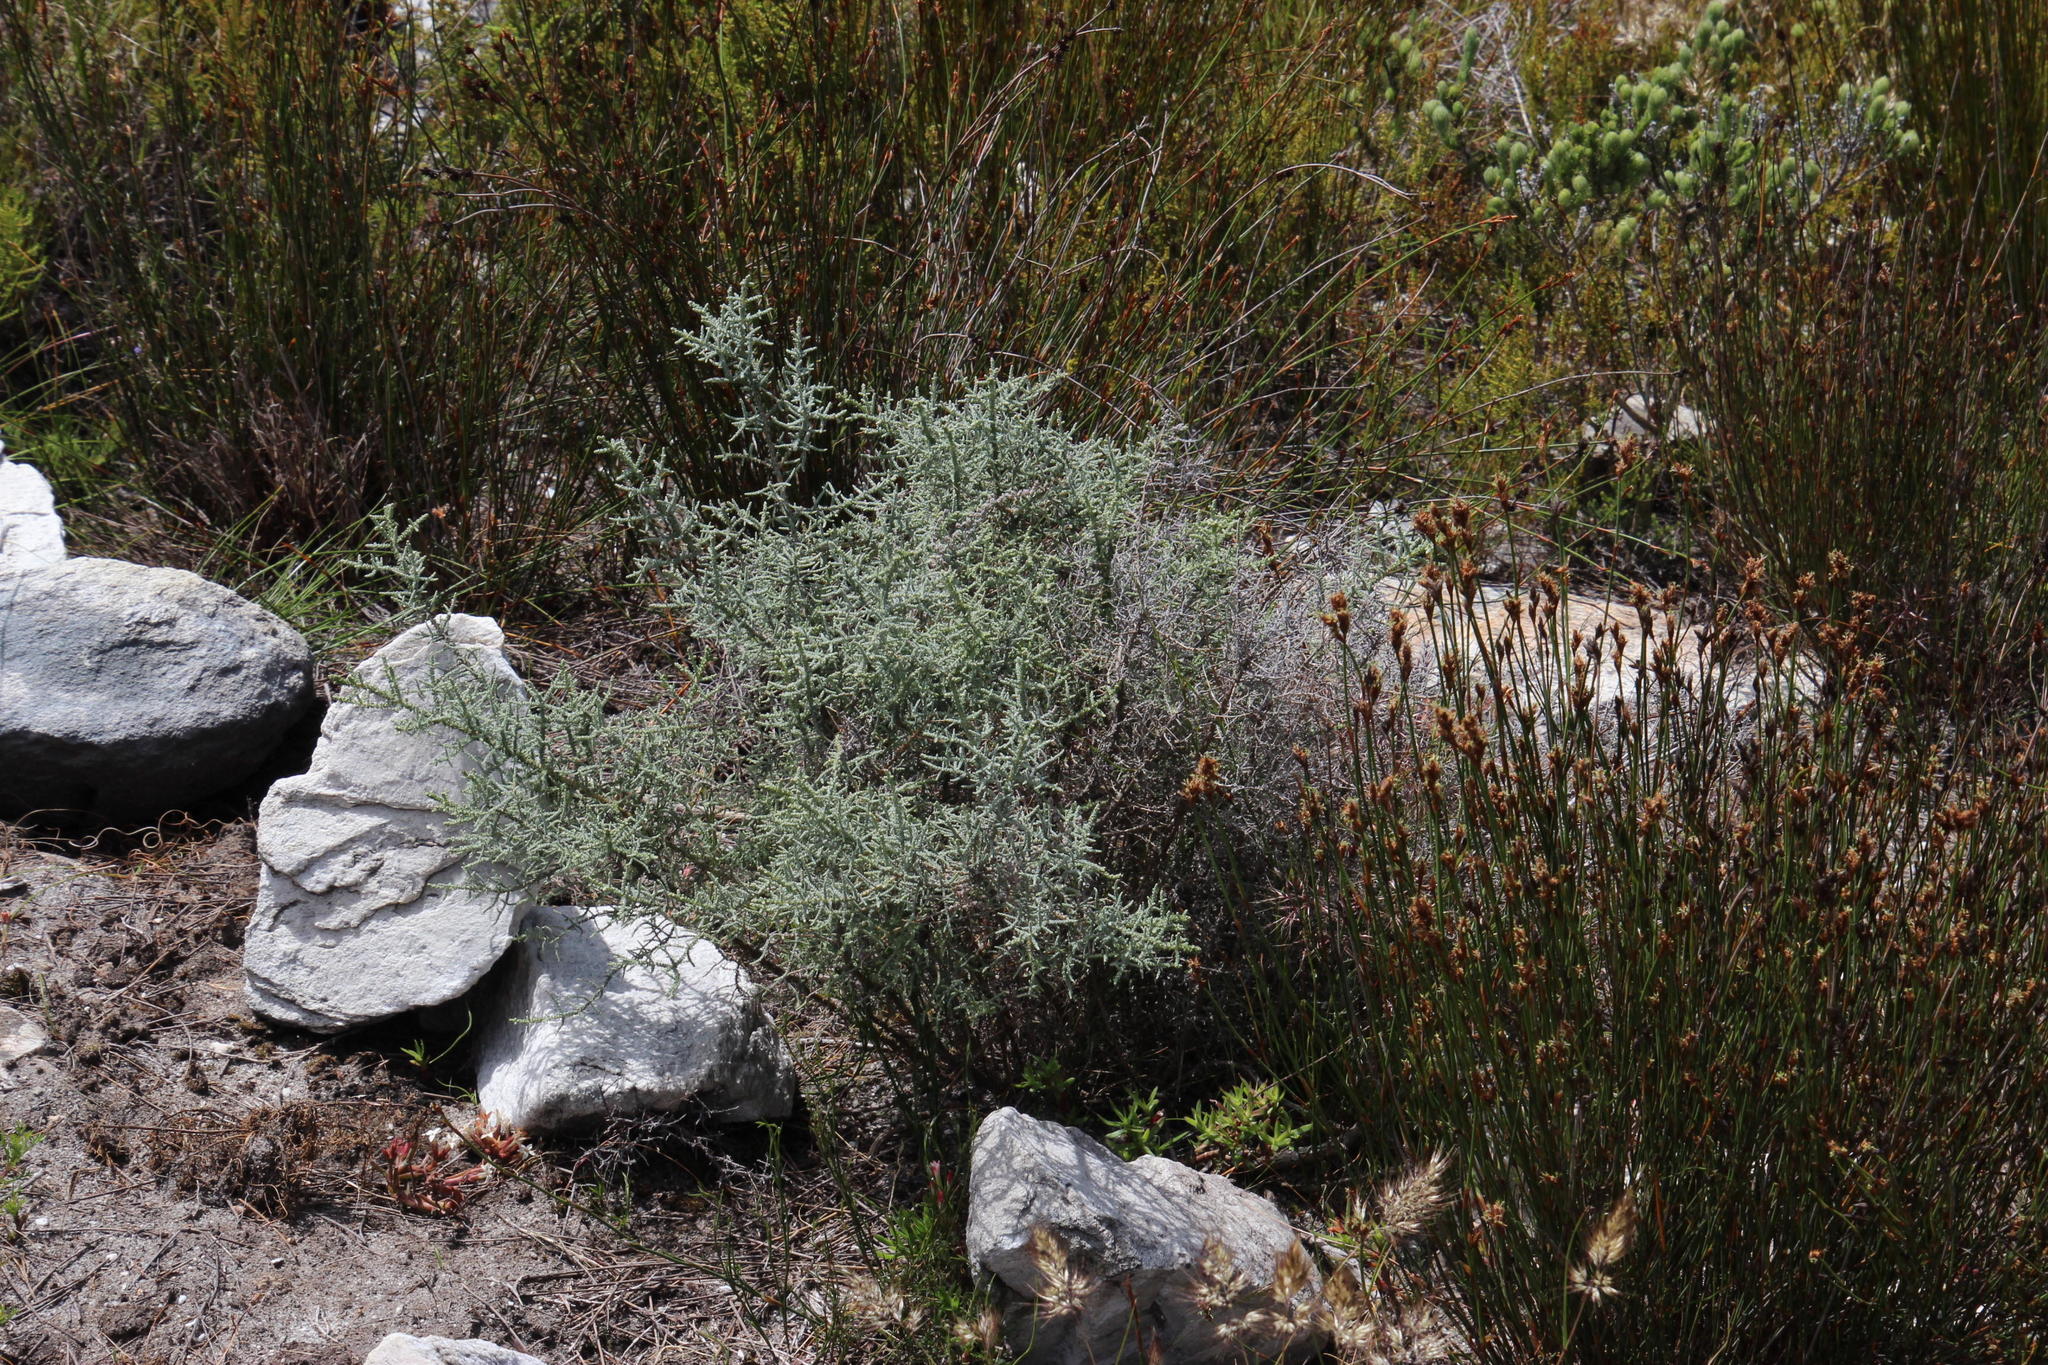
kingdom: Plantae
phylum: Tracheophyta
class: Magnoliopsida
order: Asterales
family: Asteraceae
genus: Seriphium
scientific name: Seriphium plumosum
